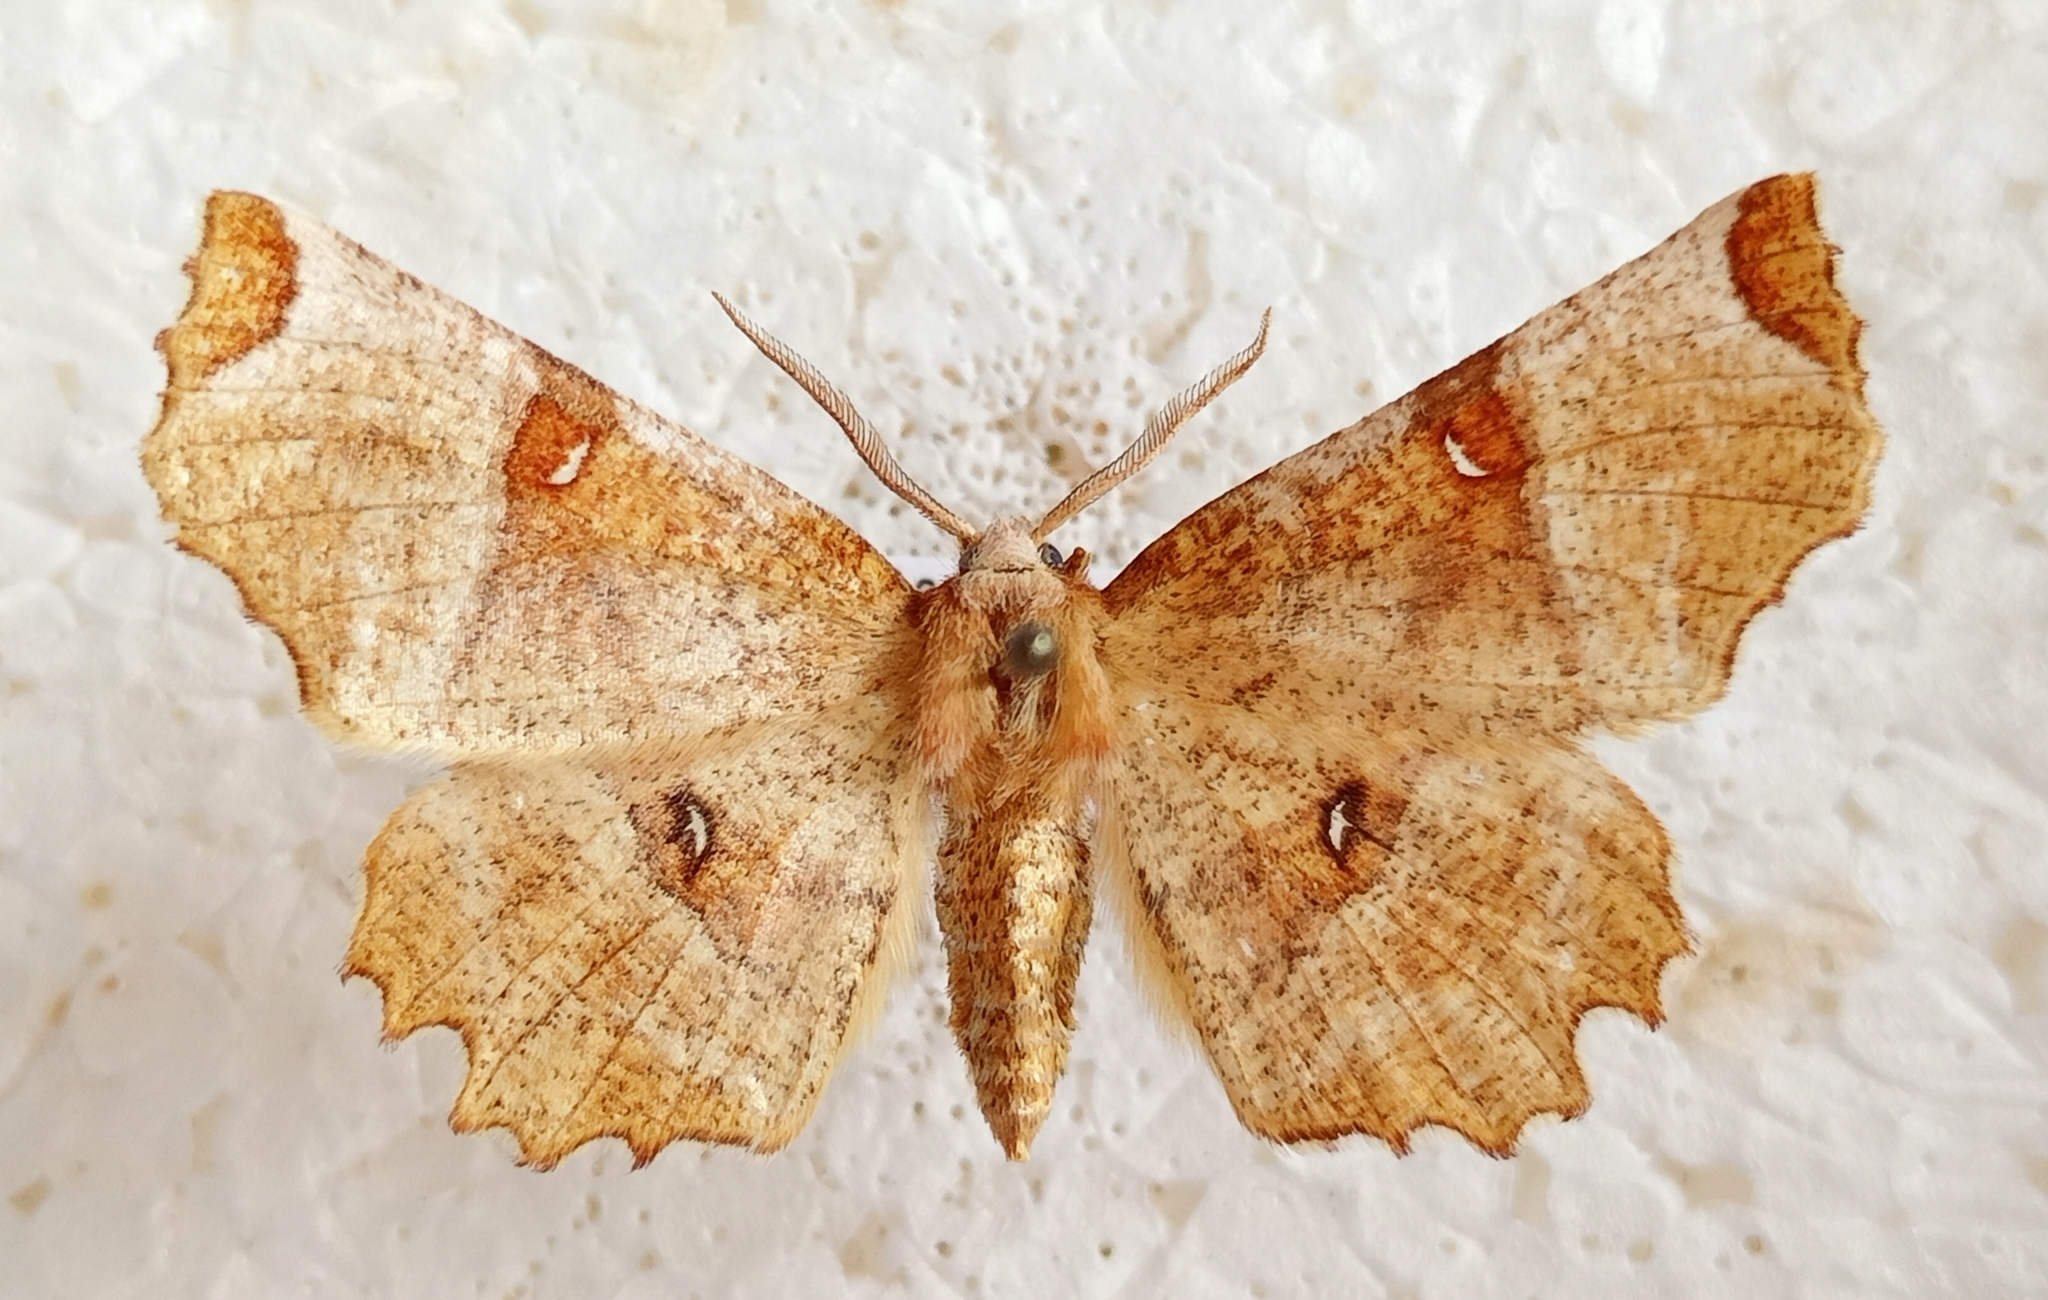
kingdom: Animalia
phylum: Arthropoda
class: Insecta
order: Lepidoptera
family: Geometridae
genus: Selenia
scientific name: Selenia lunularia
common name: Lunar thorn
